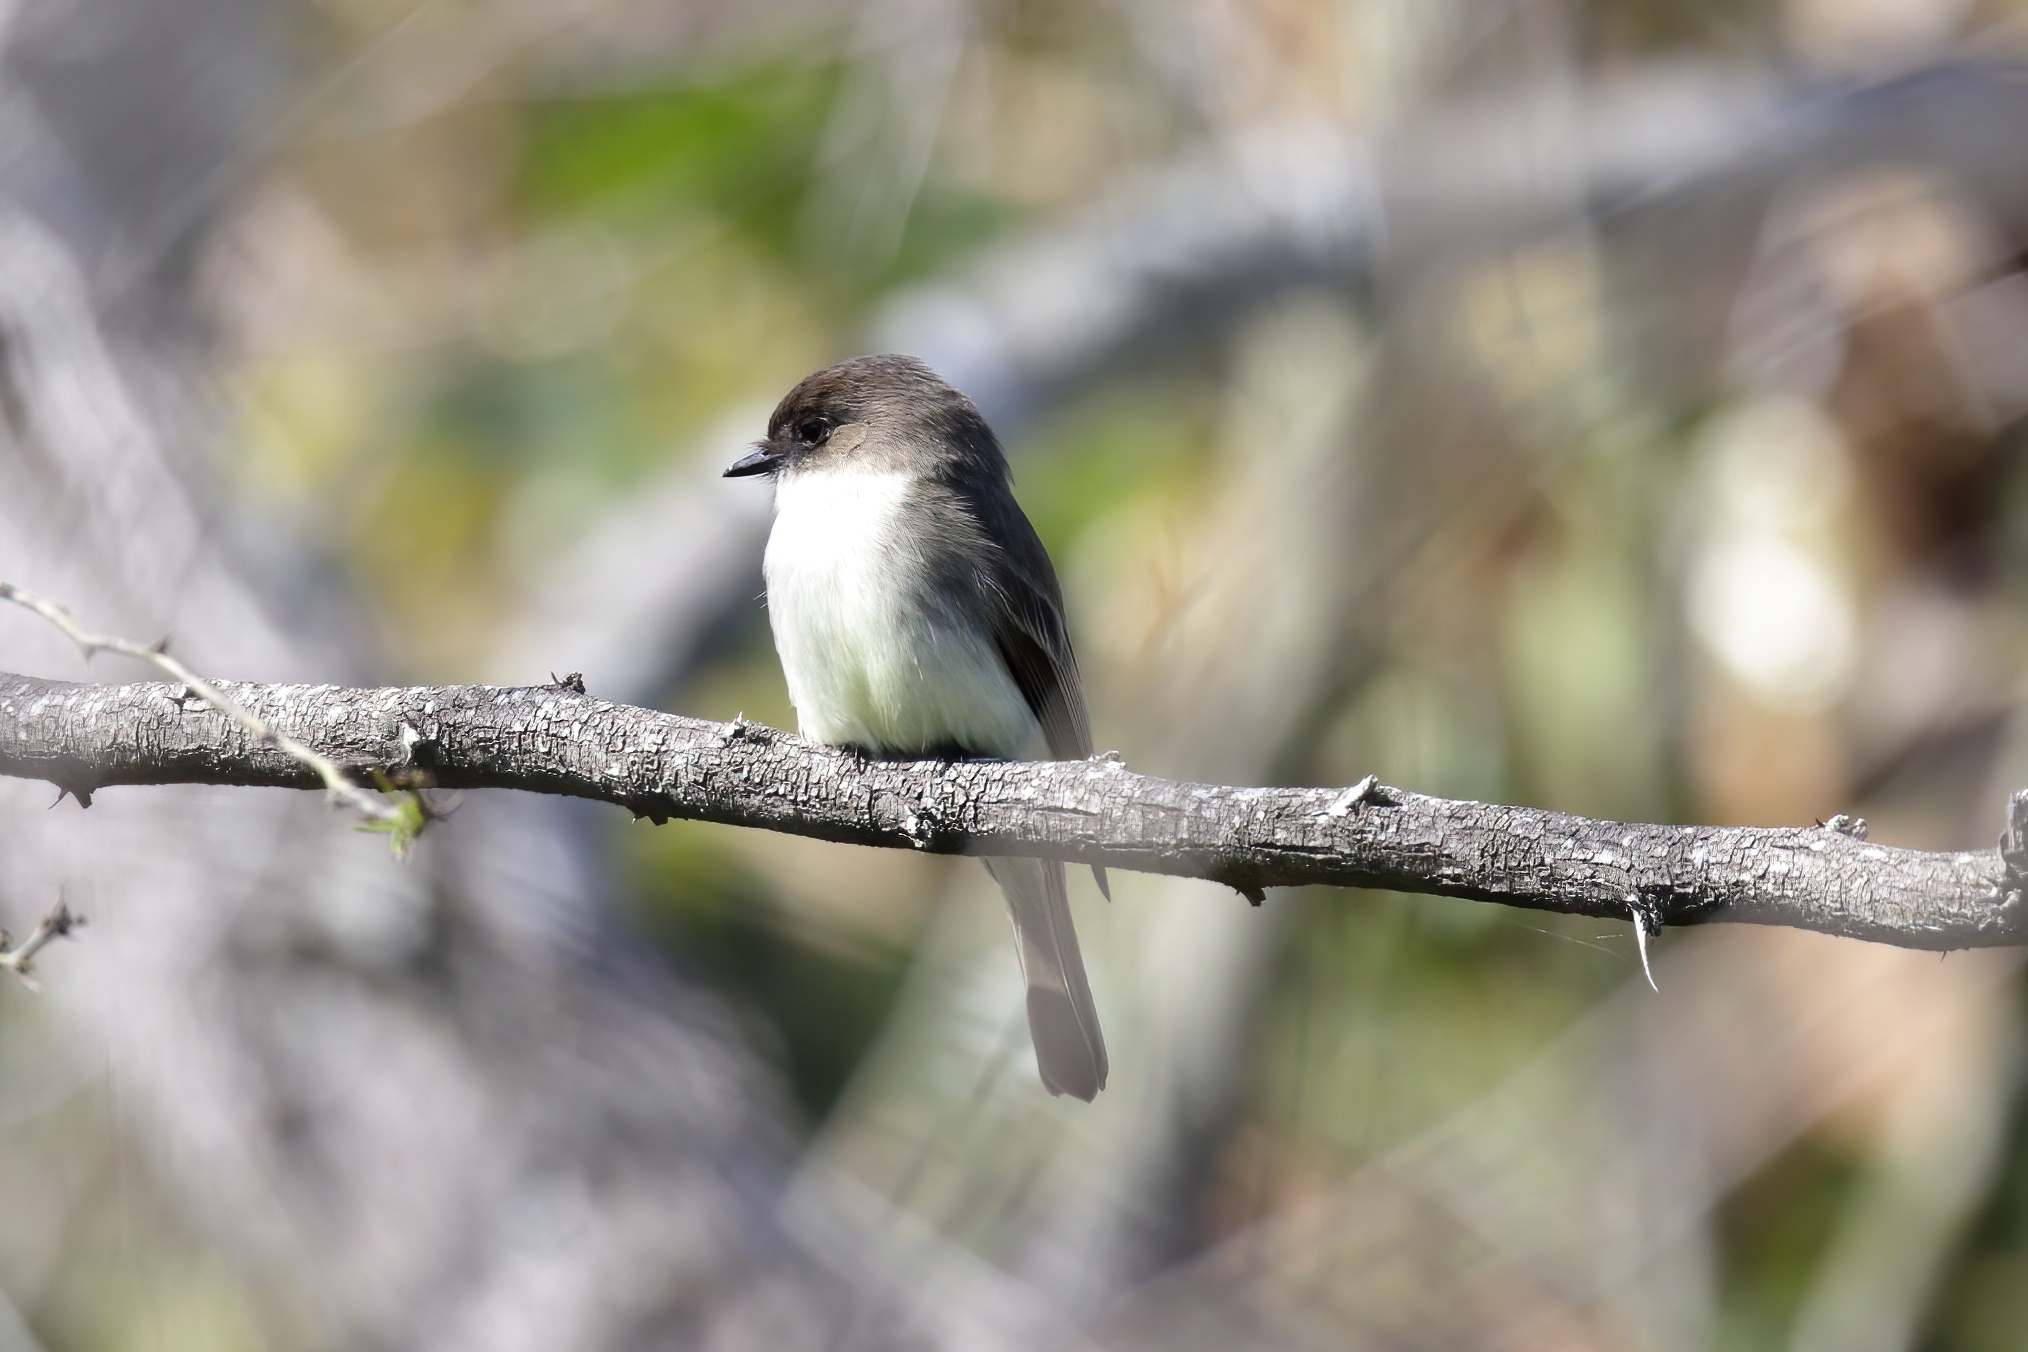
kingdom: Animalia
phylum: Chordata
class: Aves
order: Passeriformes
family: Tyrannidae
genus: Sayornis
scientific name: Sayornis phoebe
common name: Eastern phoebe
